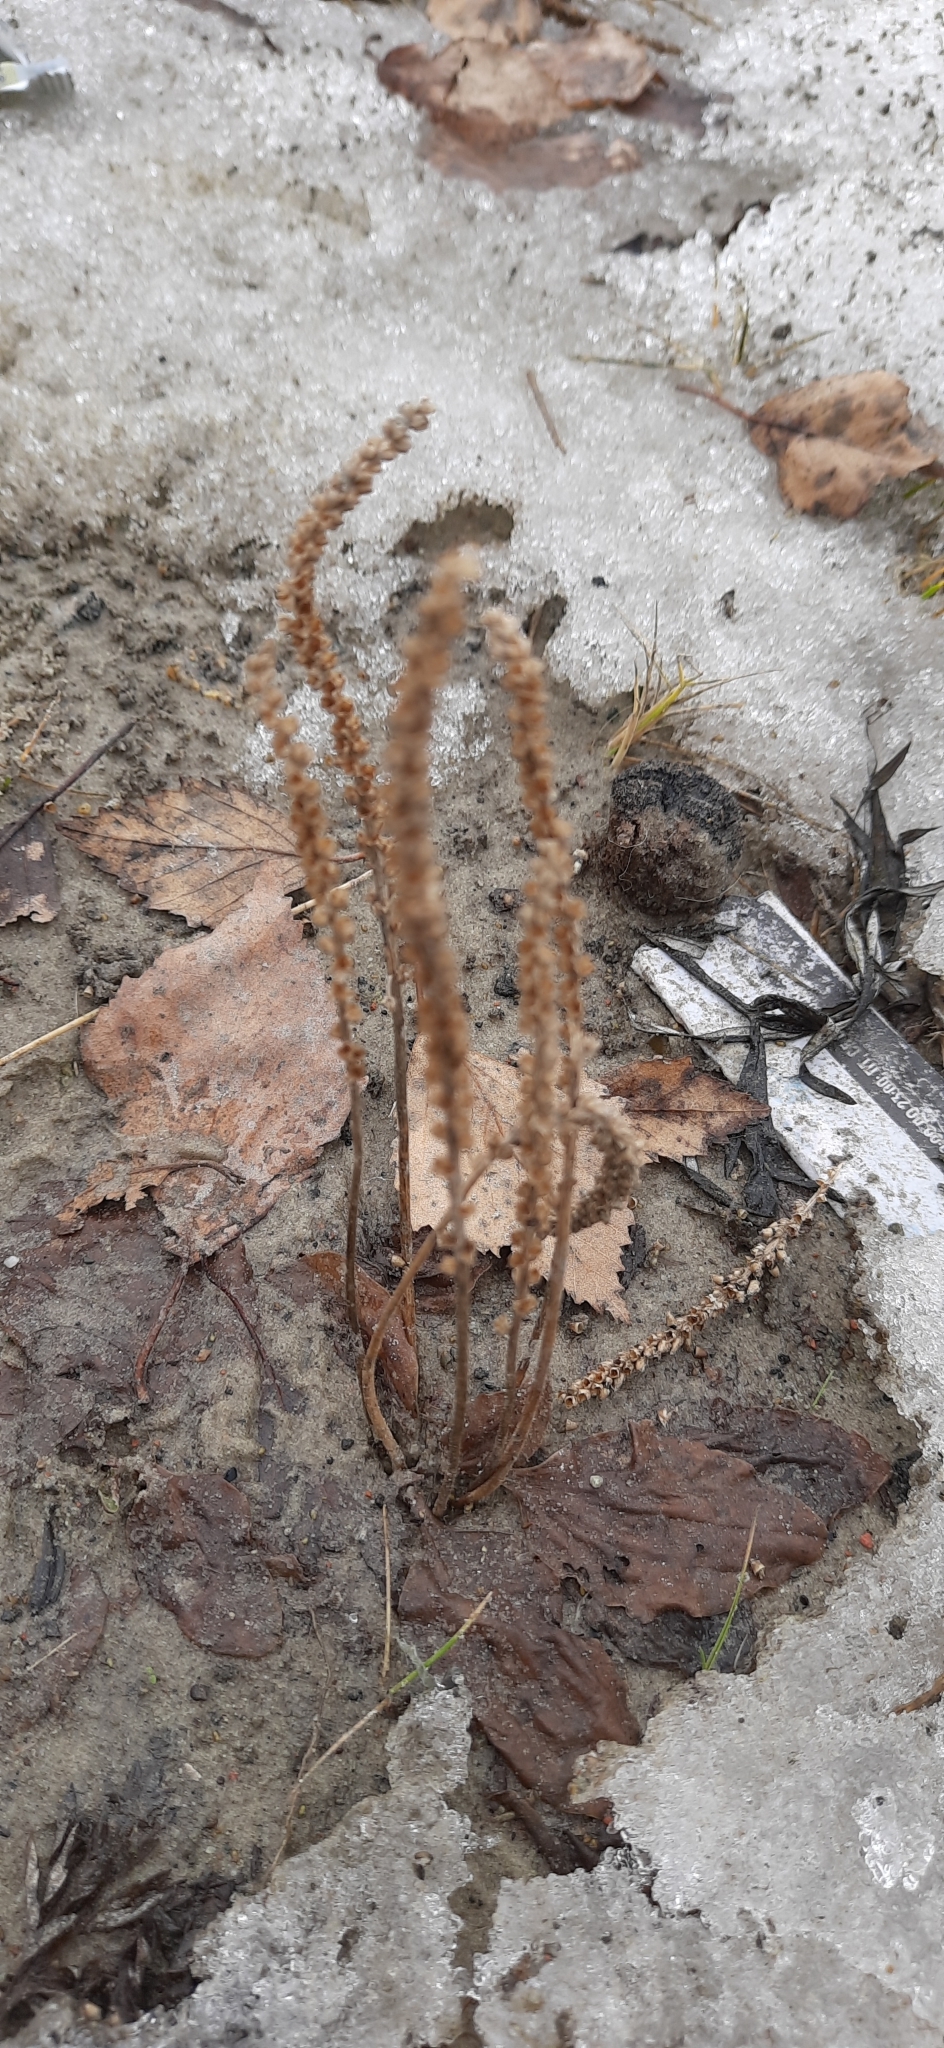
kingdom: Plantae
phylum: Tracheophyta
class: Magnoliopsida
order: Lamiales
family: Plantaginaceae
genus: Plantago
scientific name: Plantago major
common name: Common plantain
